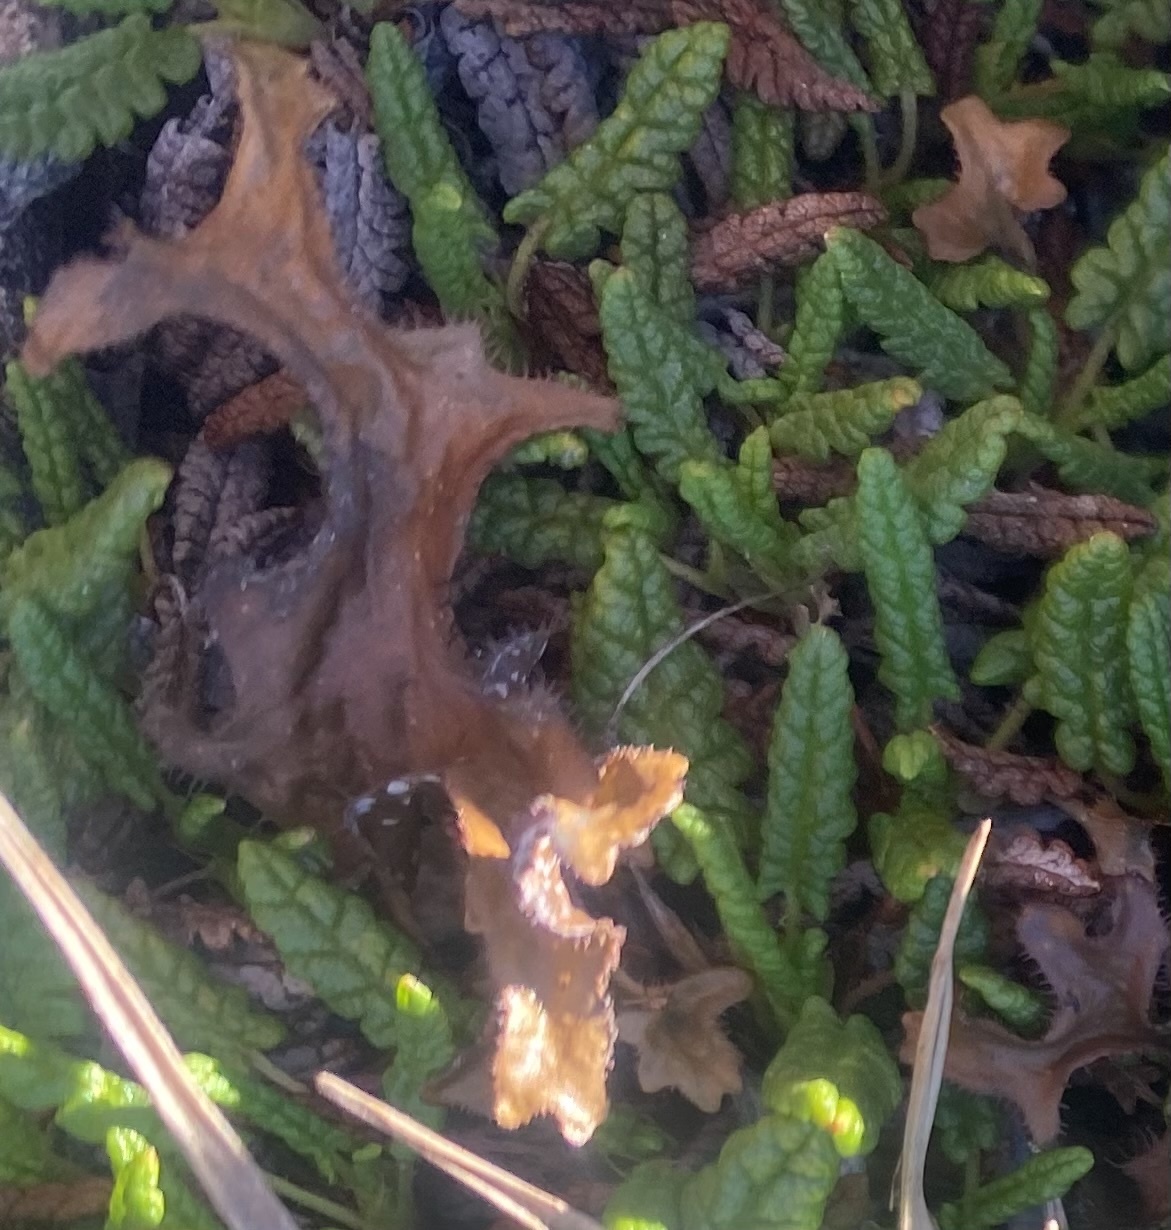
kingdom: Fungi
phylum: Ascomycota
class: Lecanoromycetes
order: Lecanorales
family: Parmeliaceae
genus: Cetraria
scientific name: Cetraria islandica
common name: Iceland lichen
